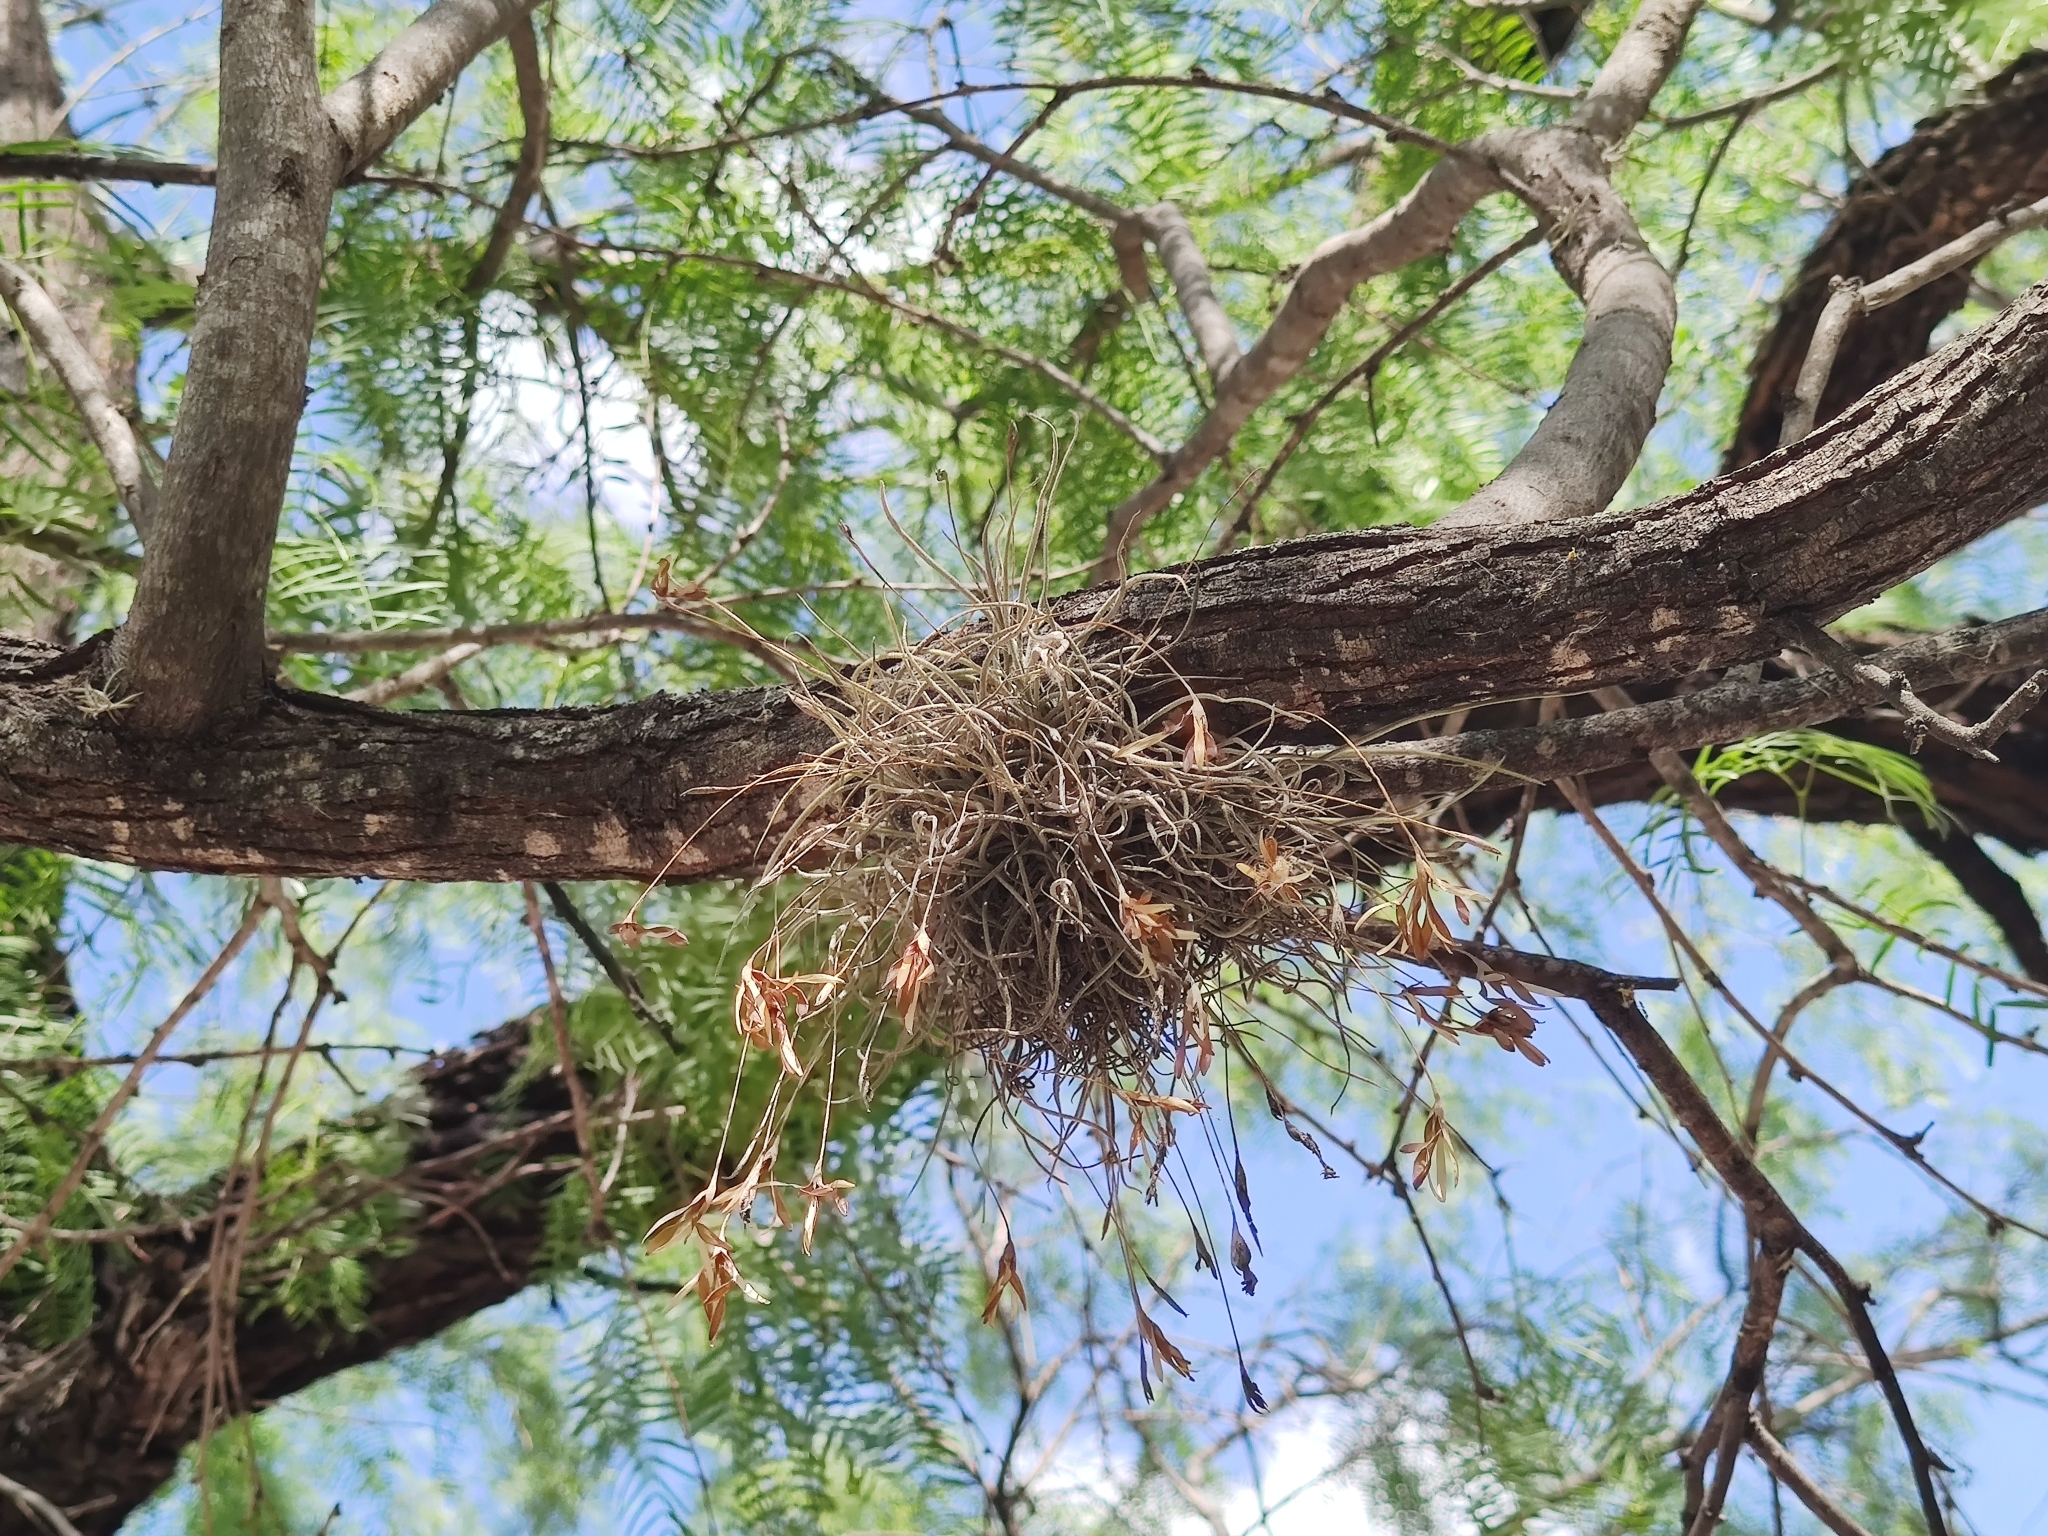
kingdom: Plantae
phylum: Tracheophyta
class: Liliopsida
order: Poales
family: Bromeliaceae
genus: Tillandsia
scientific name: Tillandsia recurvata
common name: Small ballmoss
